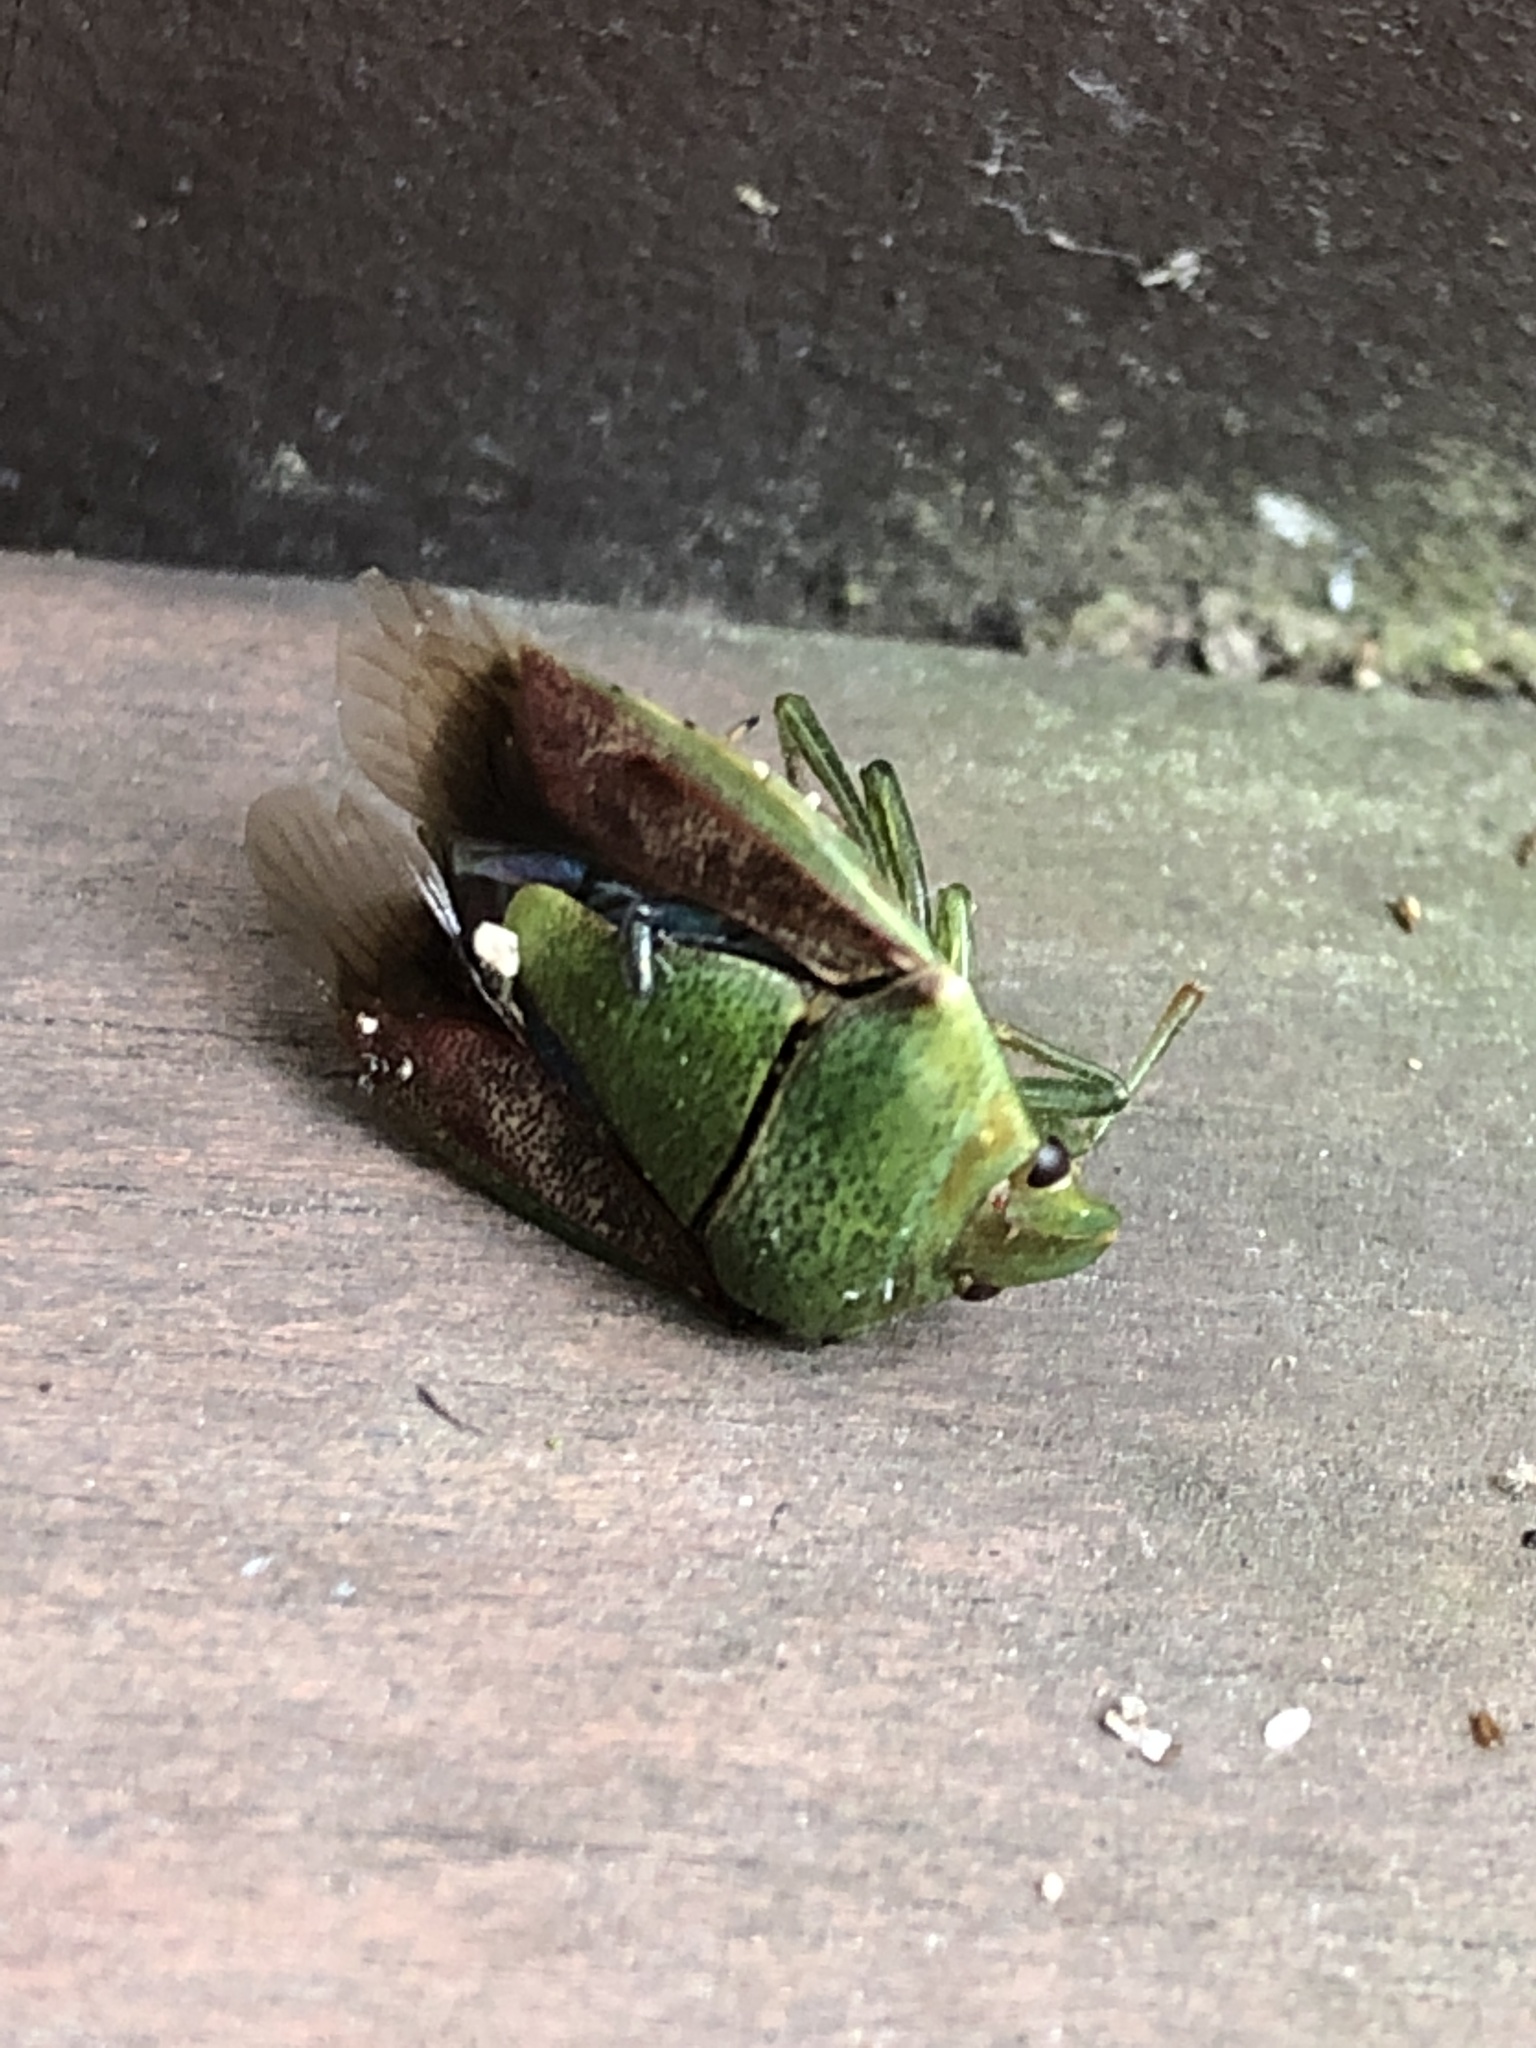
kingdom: Animalia
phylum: Arthropoda
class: Insecta
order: Hemiptera
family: Pentatomidae
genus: Plautia
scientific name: Plautia stali
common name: Stink bug
